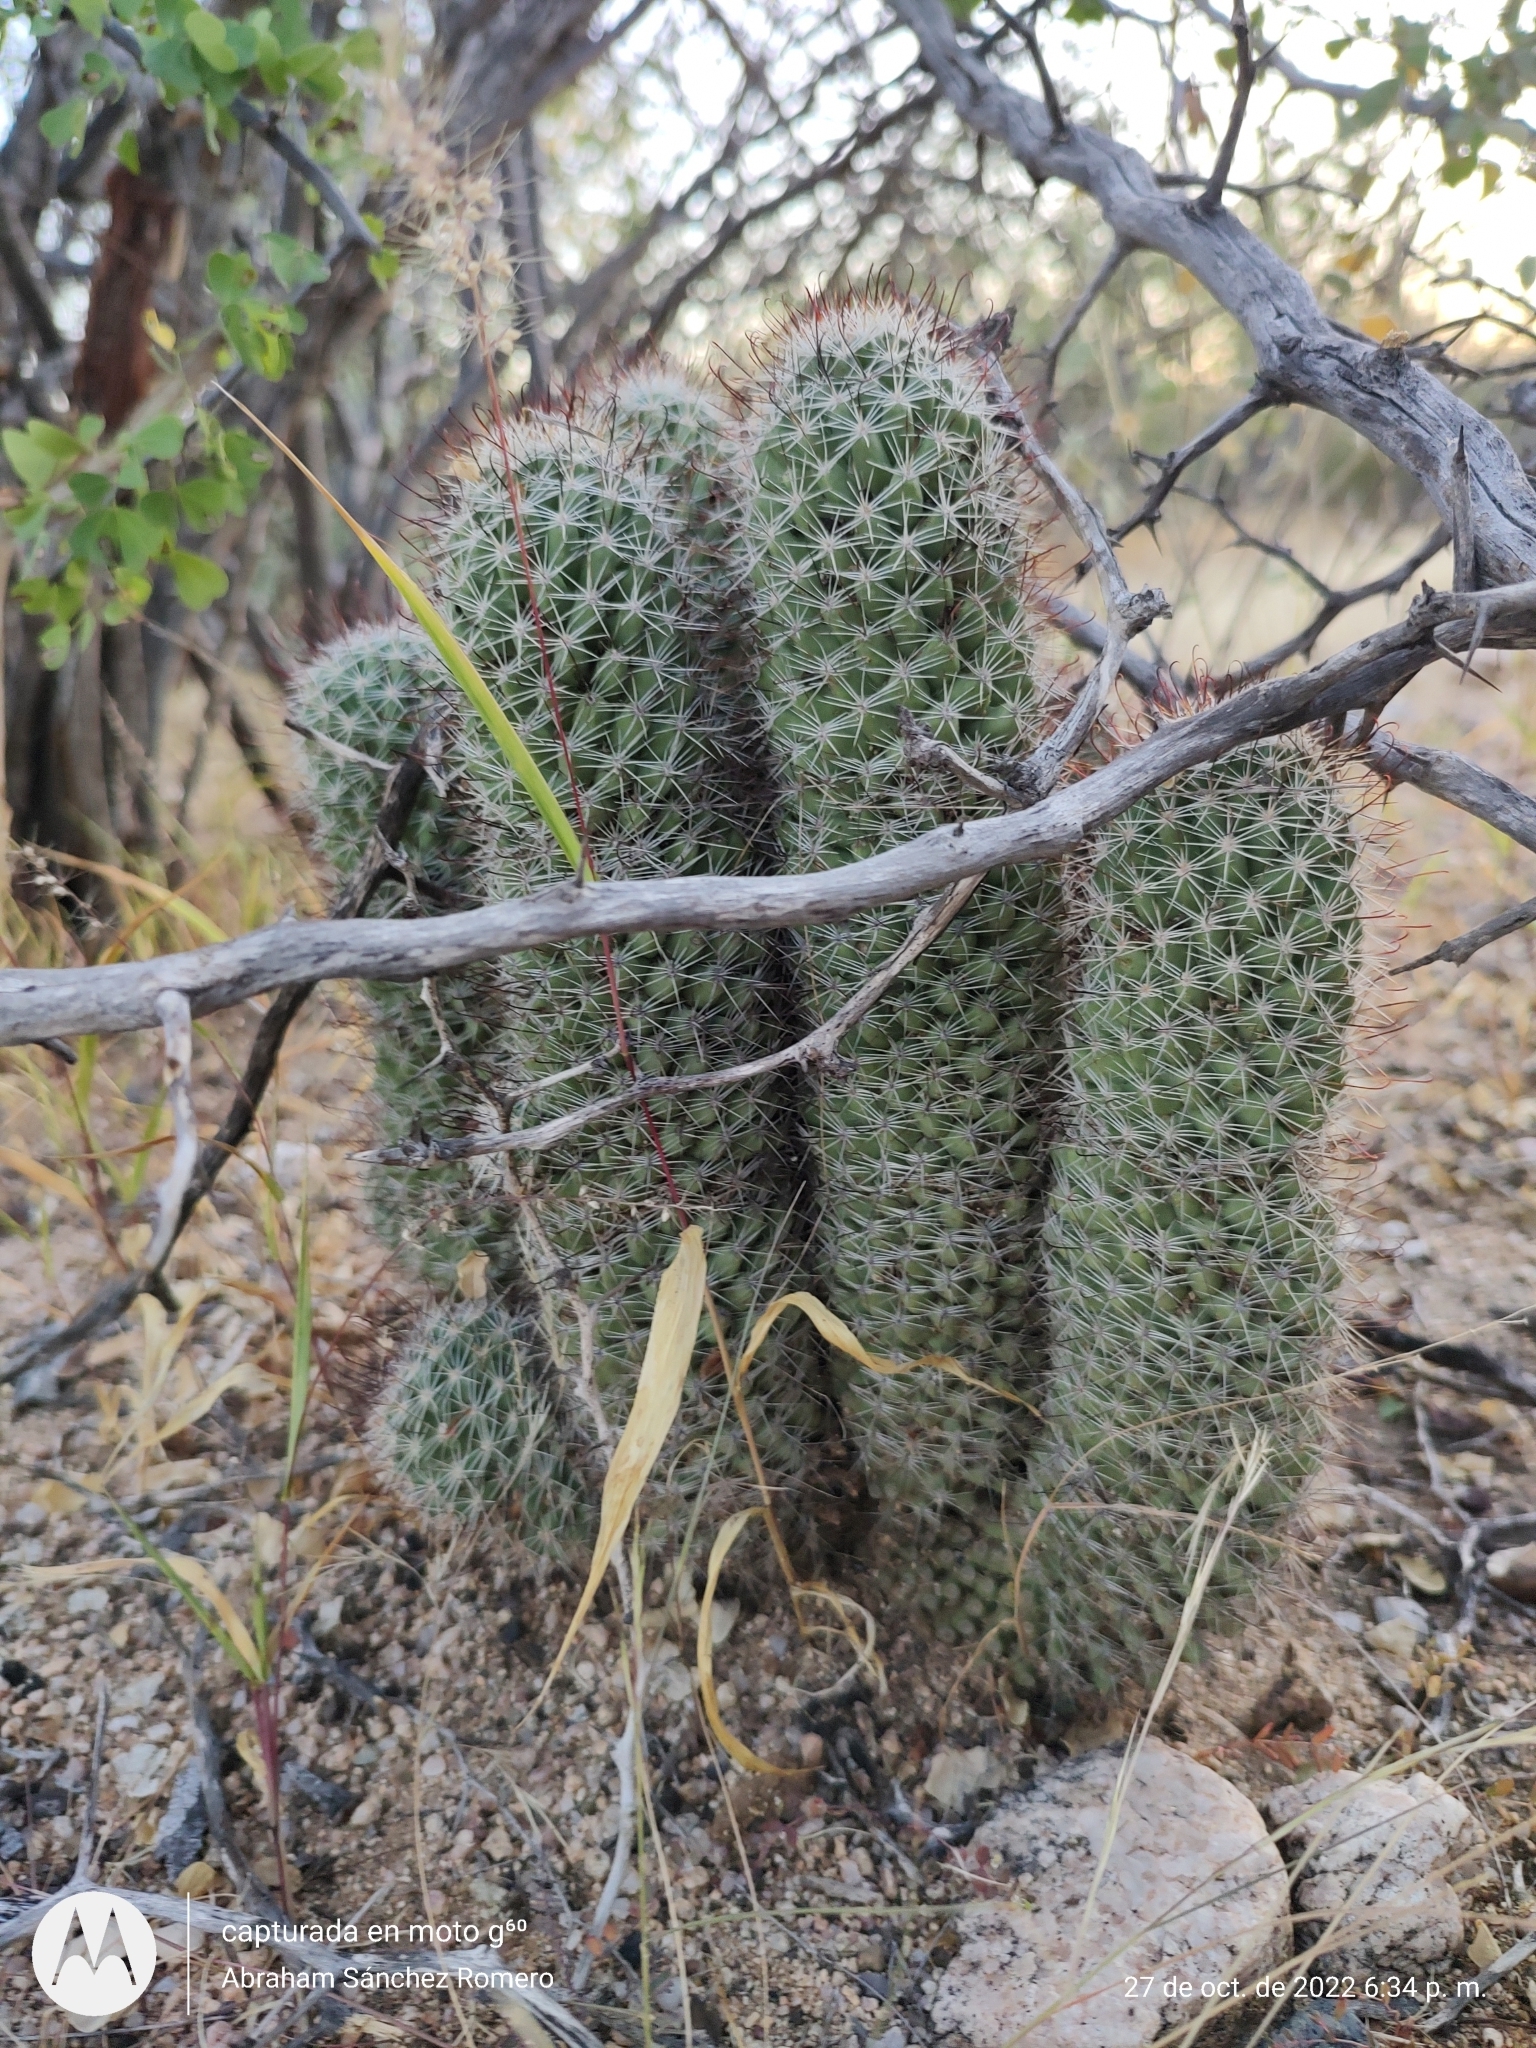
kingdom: Plantae
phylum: Tracheophyta
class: Magnoliopsida
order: Caryophyllales
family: Cactaceae
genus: Cochemiea
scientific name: Cochemiea armillata
